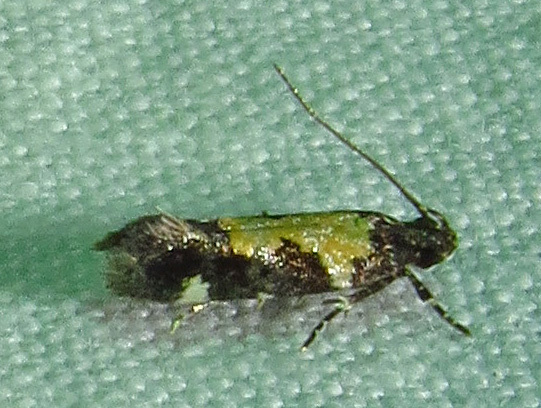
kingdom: Animalia
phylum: Arthropoda
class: Insecta
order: Lepidoptera
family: Gelechiidae
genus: Stegasta
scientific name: Stegasta bosqueella
